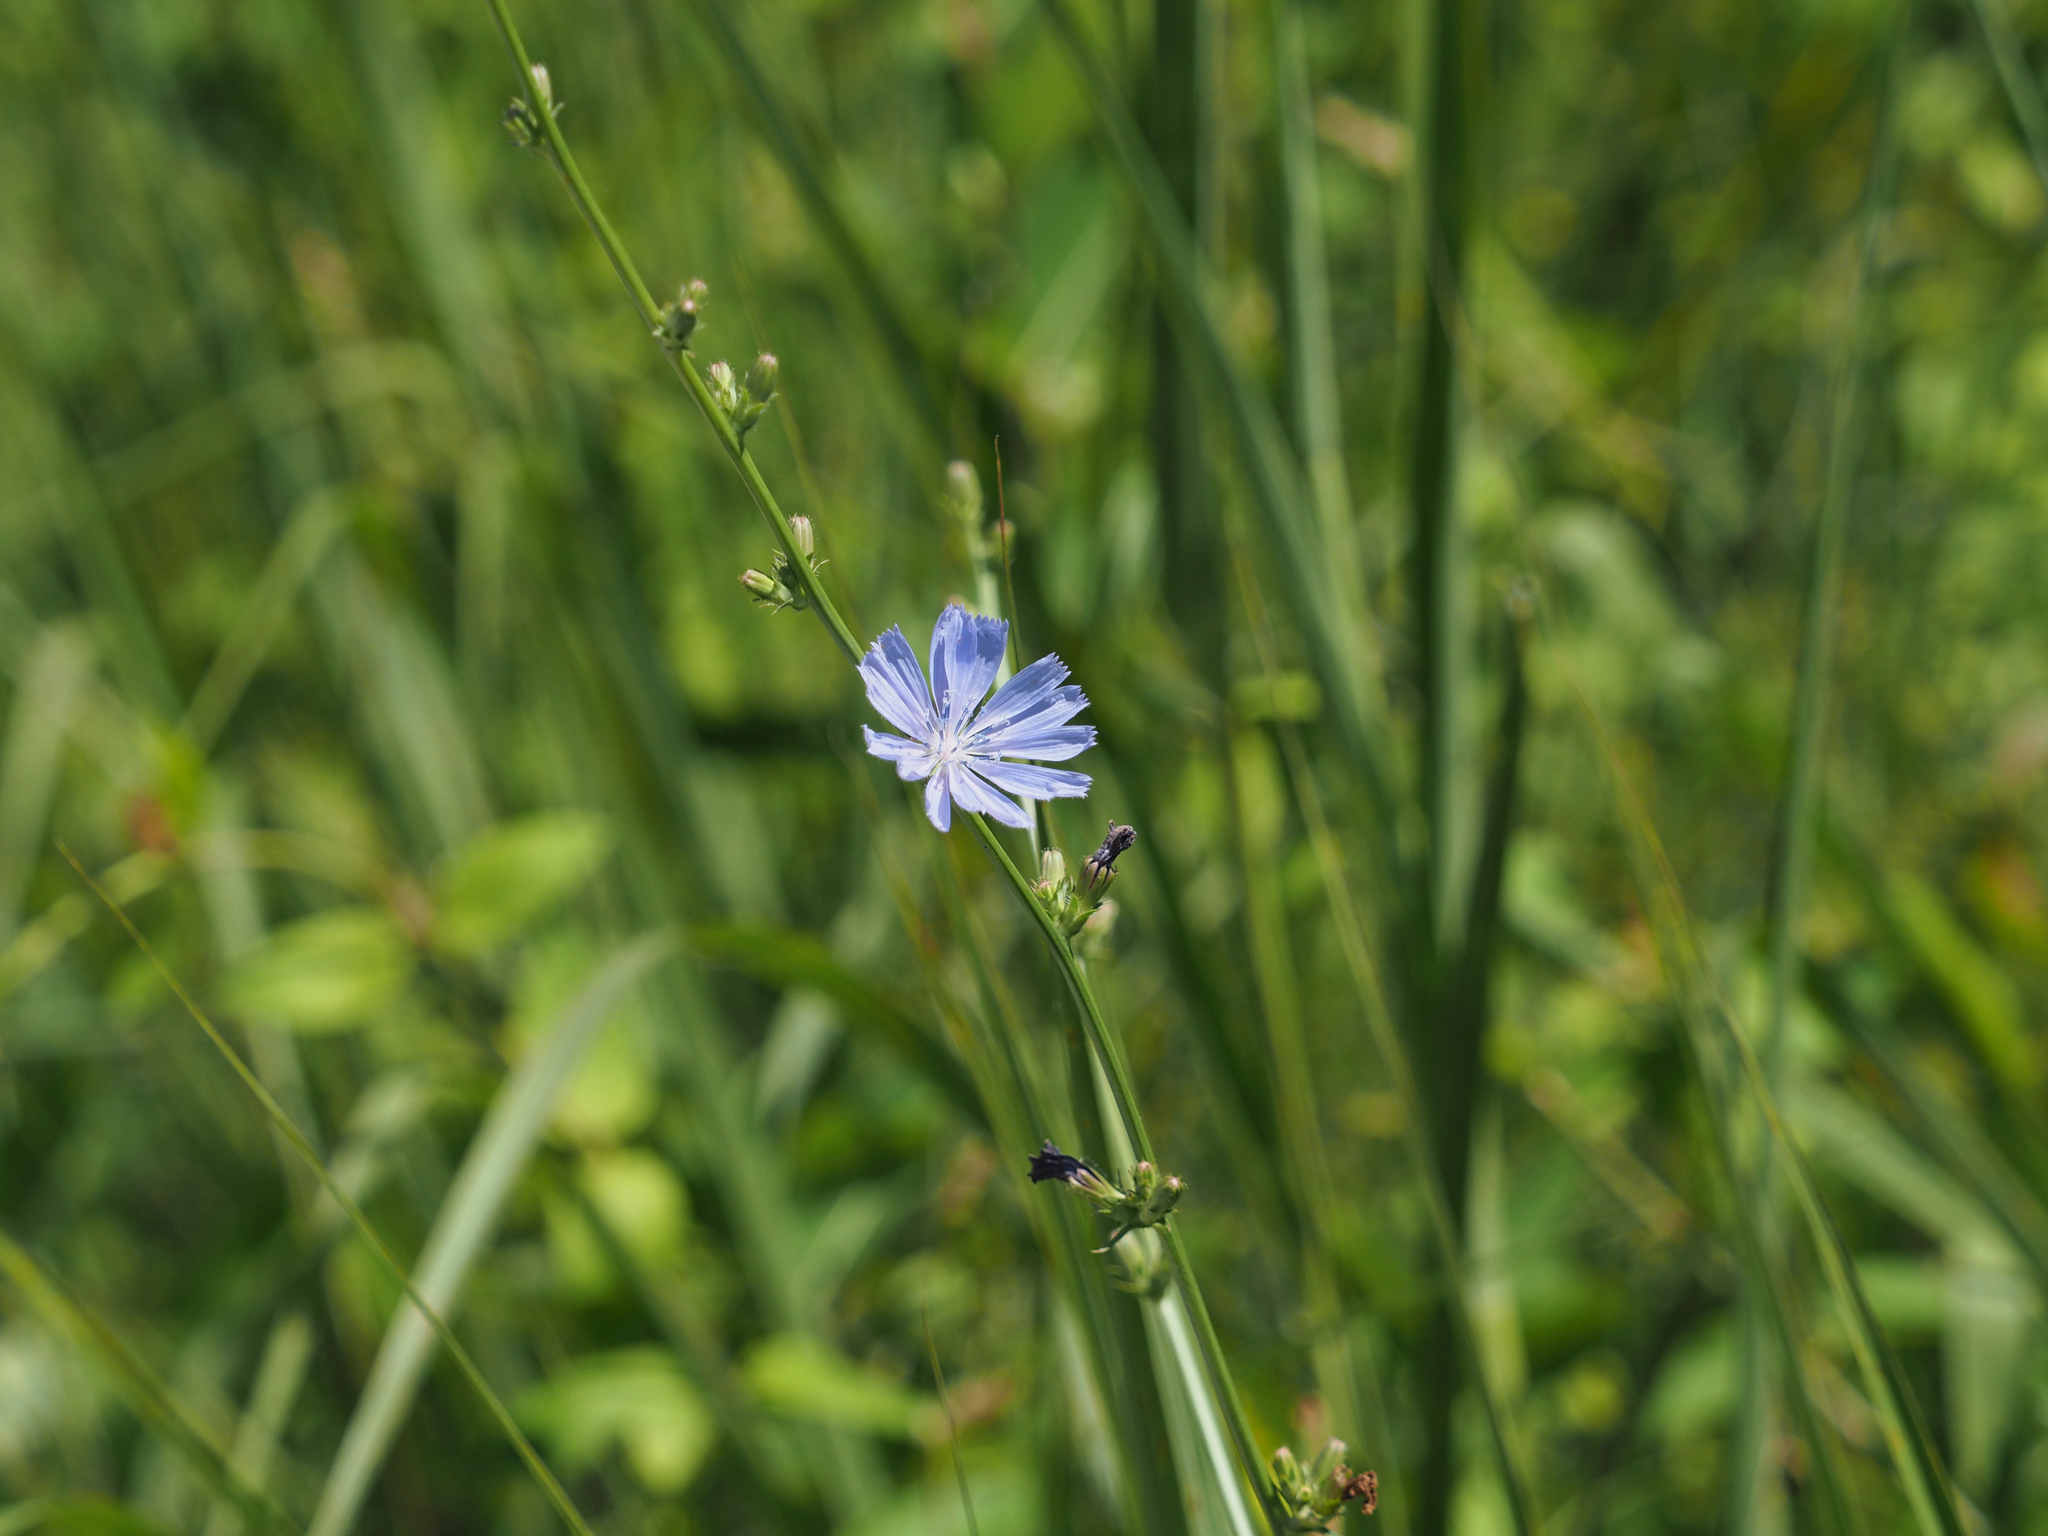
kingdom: Plantae
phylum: Tracheophyta
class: Magnoliopsida
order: Asterales
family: Asteraceae
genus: Cichorium
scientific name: Cichorium intybus
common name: Chicory
